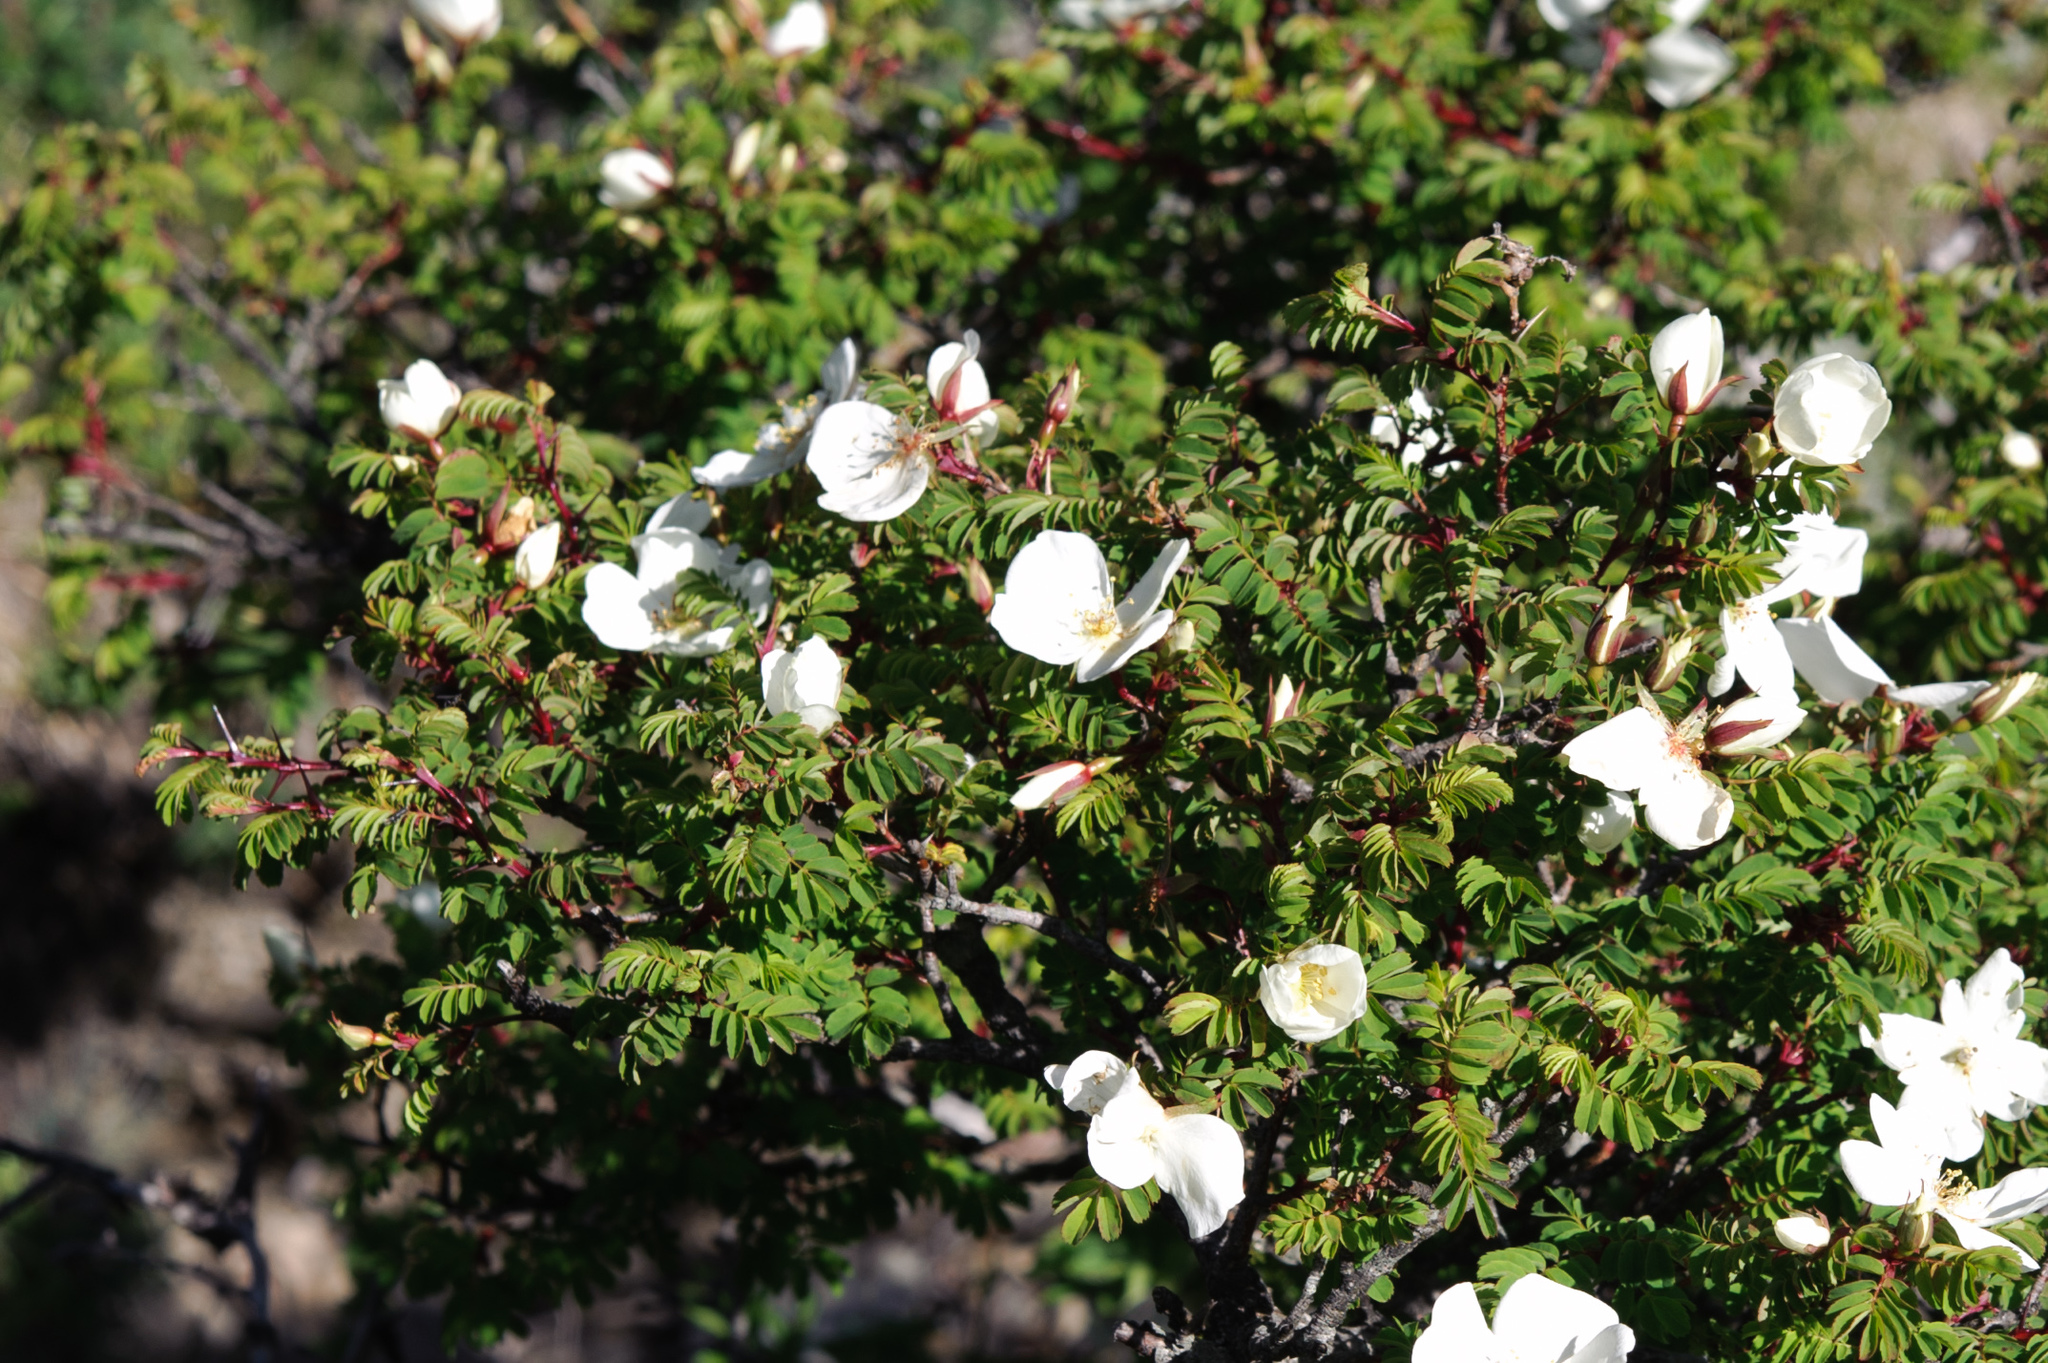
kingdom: Plantae
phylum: Tracheophyta
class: Magnoliopsida
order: Rosales
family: Rosaceae
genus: Rosa
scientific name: Rosa morrisonensis
